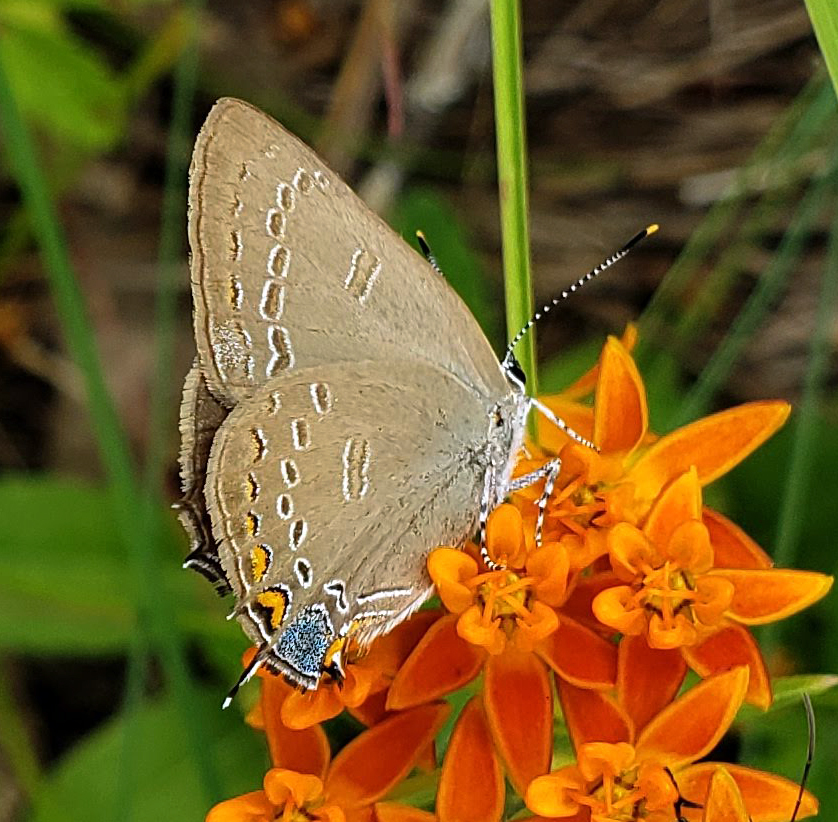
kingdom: Animalia
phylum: Arthropoda
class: Insecta
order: Lepidoptera
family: Lycaenidae
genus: Satyrium
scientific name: Satyrium edwardsii
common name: Edwards' hairstreak
